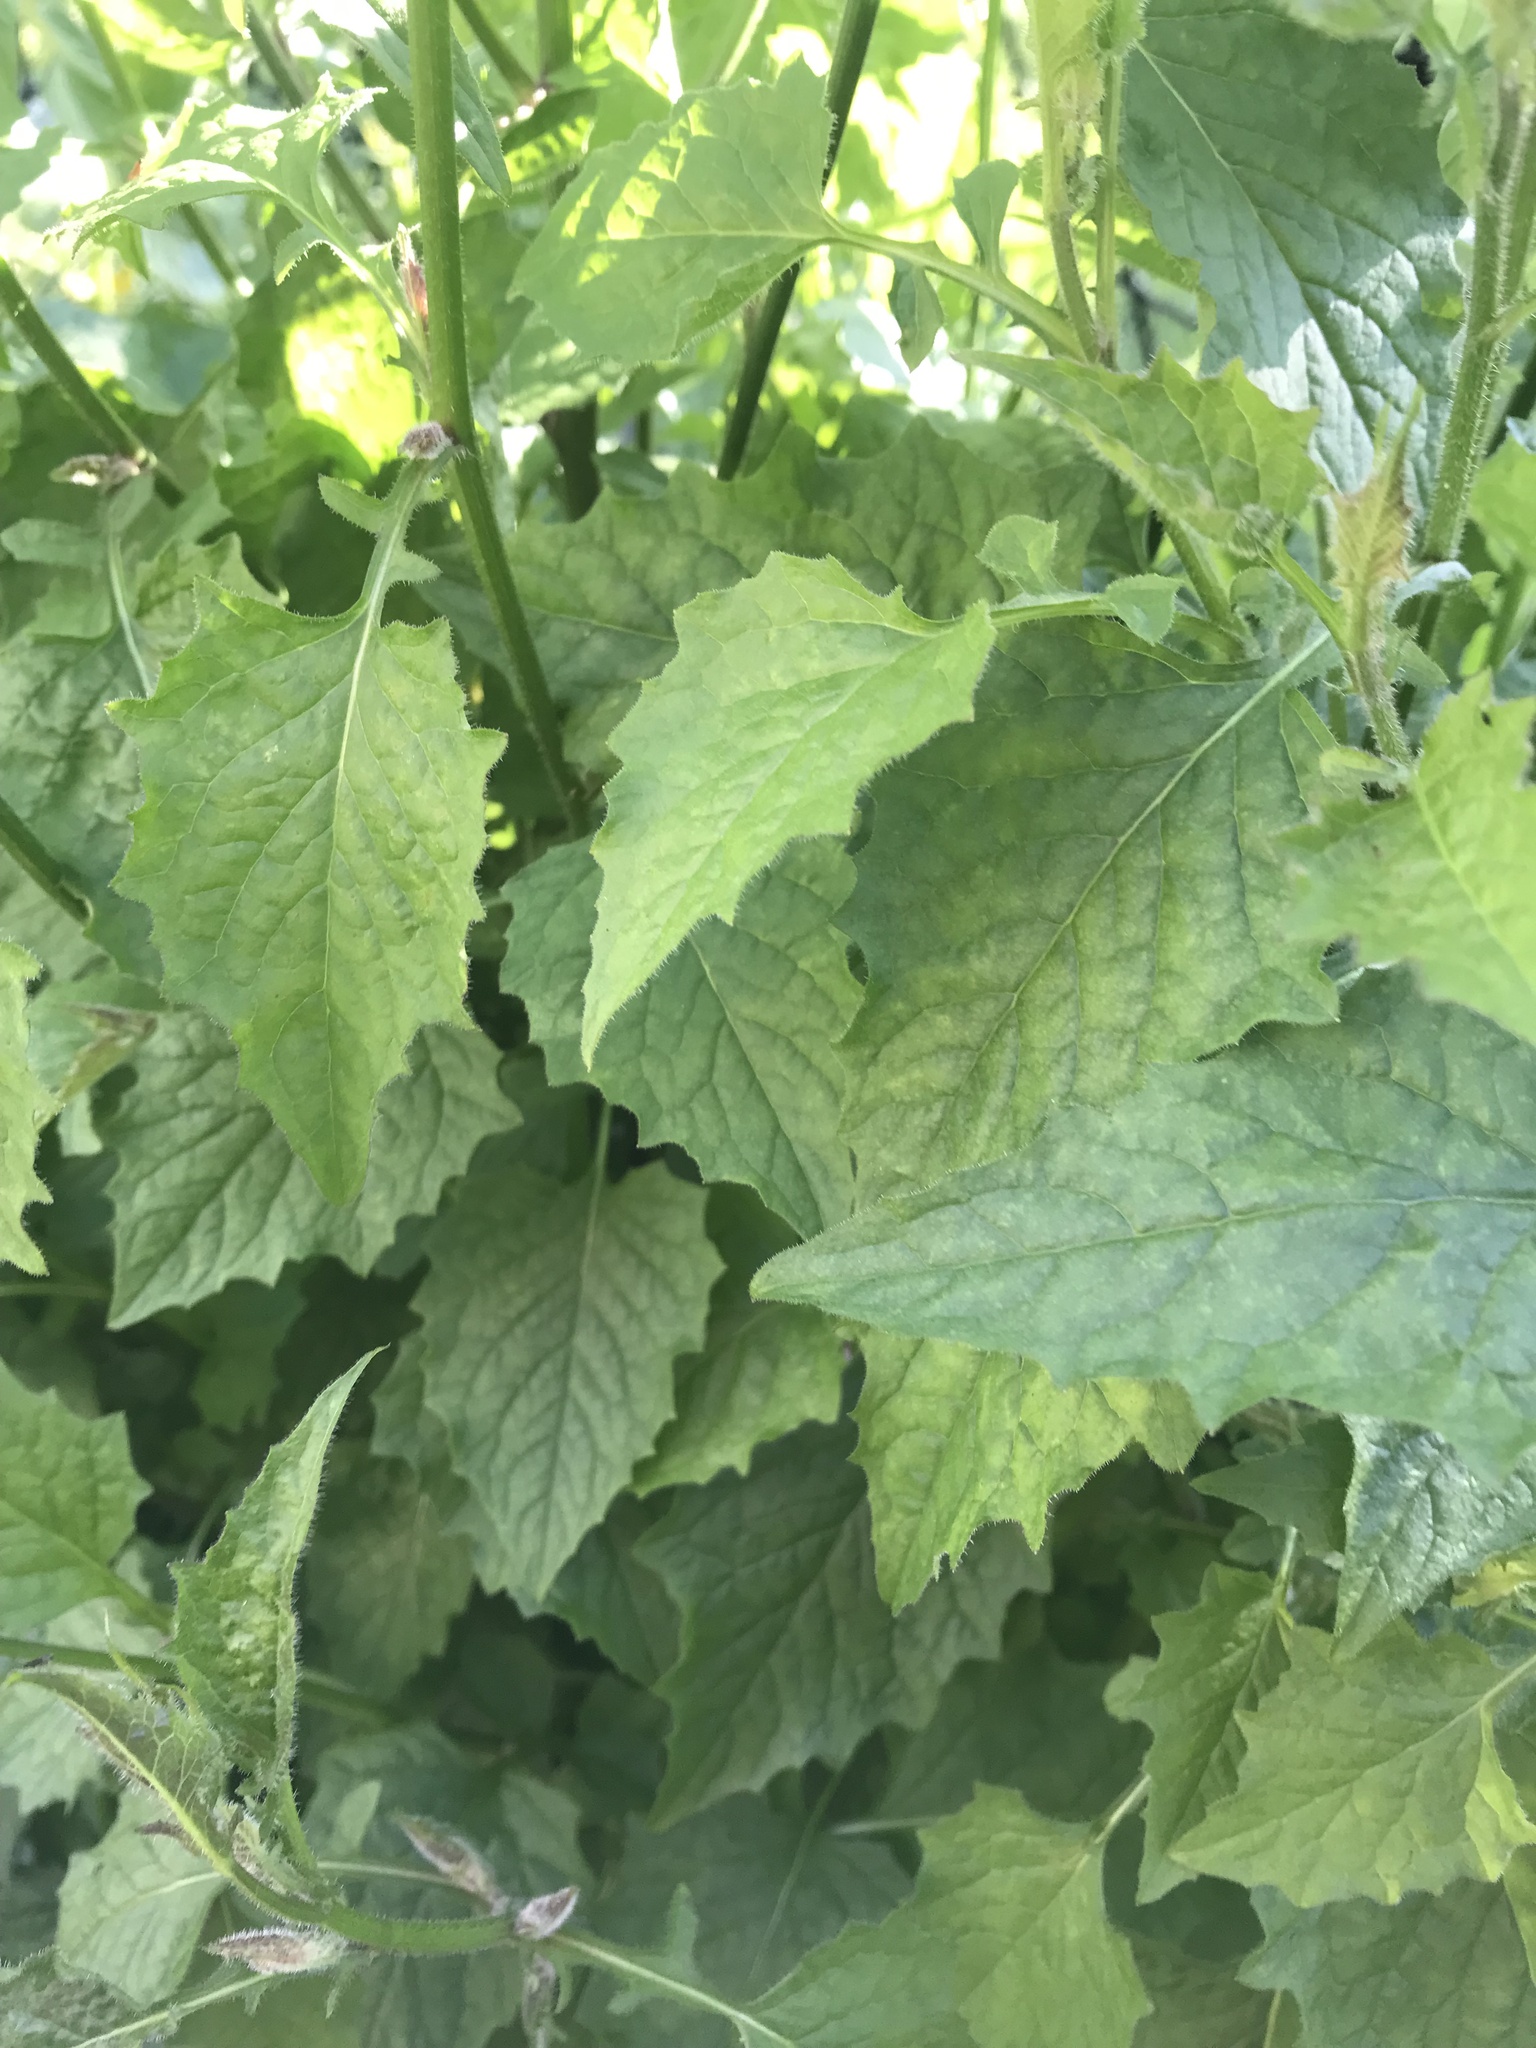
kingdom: Plantae
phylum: Tracheophyta
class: Magnoliopsida
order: Asterales
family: Asteraceae
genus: Lapsana
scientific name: Lapsana communis
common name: Nipplewort
